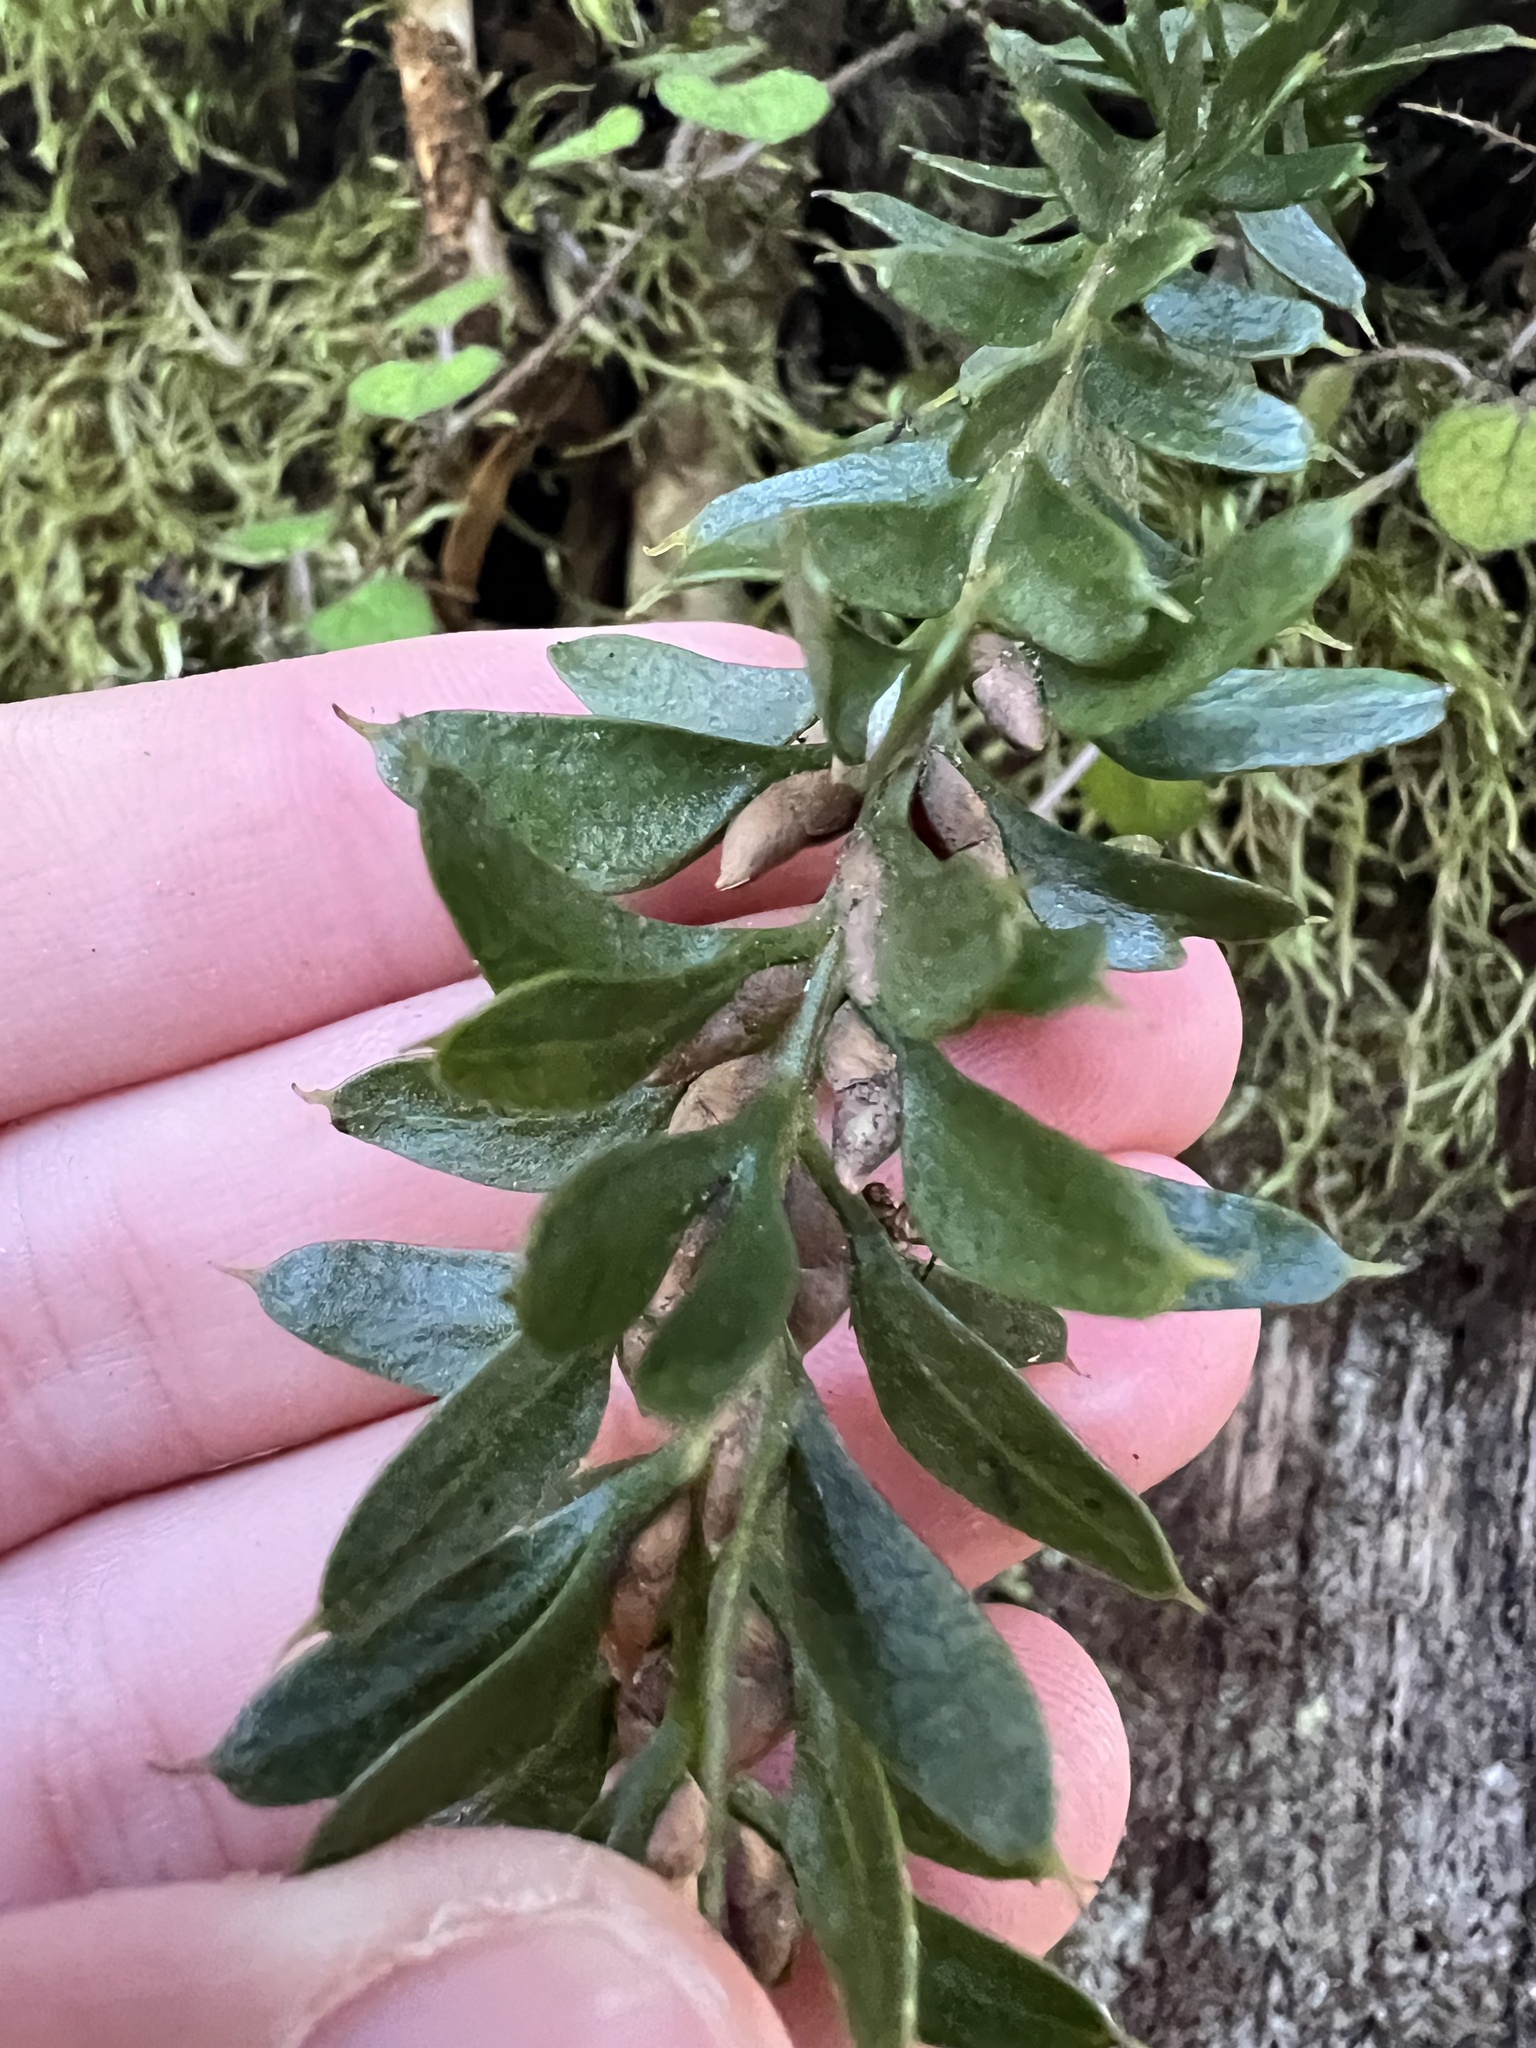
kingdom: Plantae
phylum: Tracheophyta
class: Polypodiopsida
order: Psilotales
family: Psilotaceae
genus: Tmesipteris
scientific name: Tmesipteris tannensis
